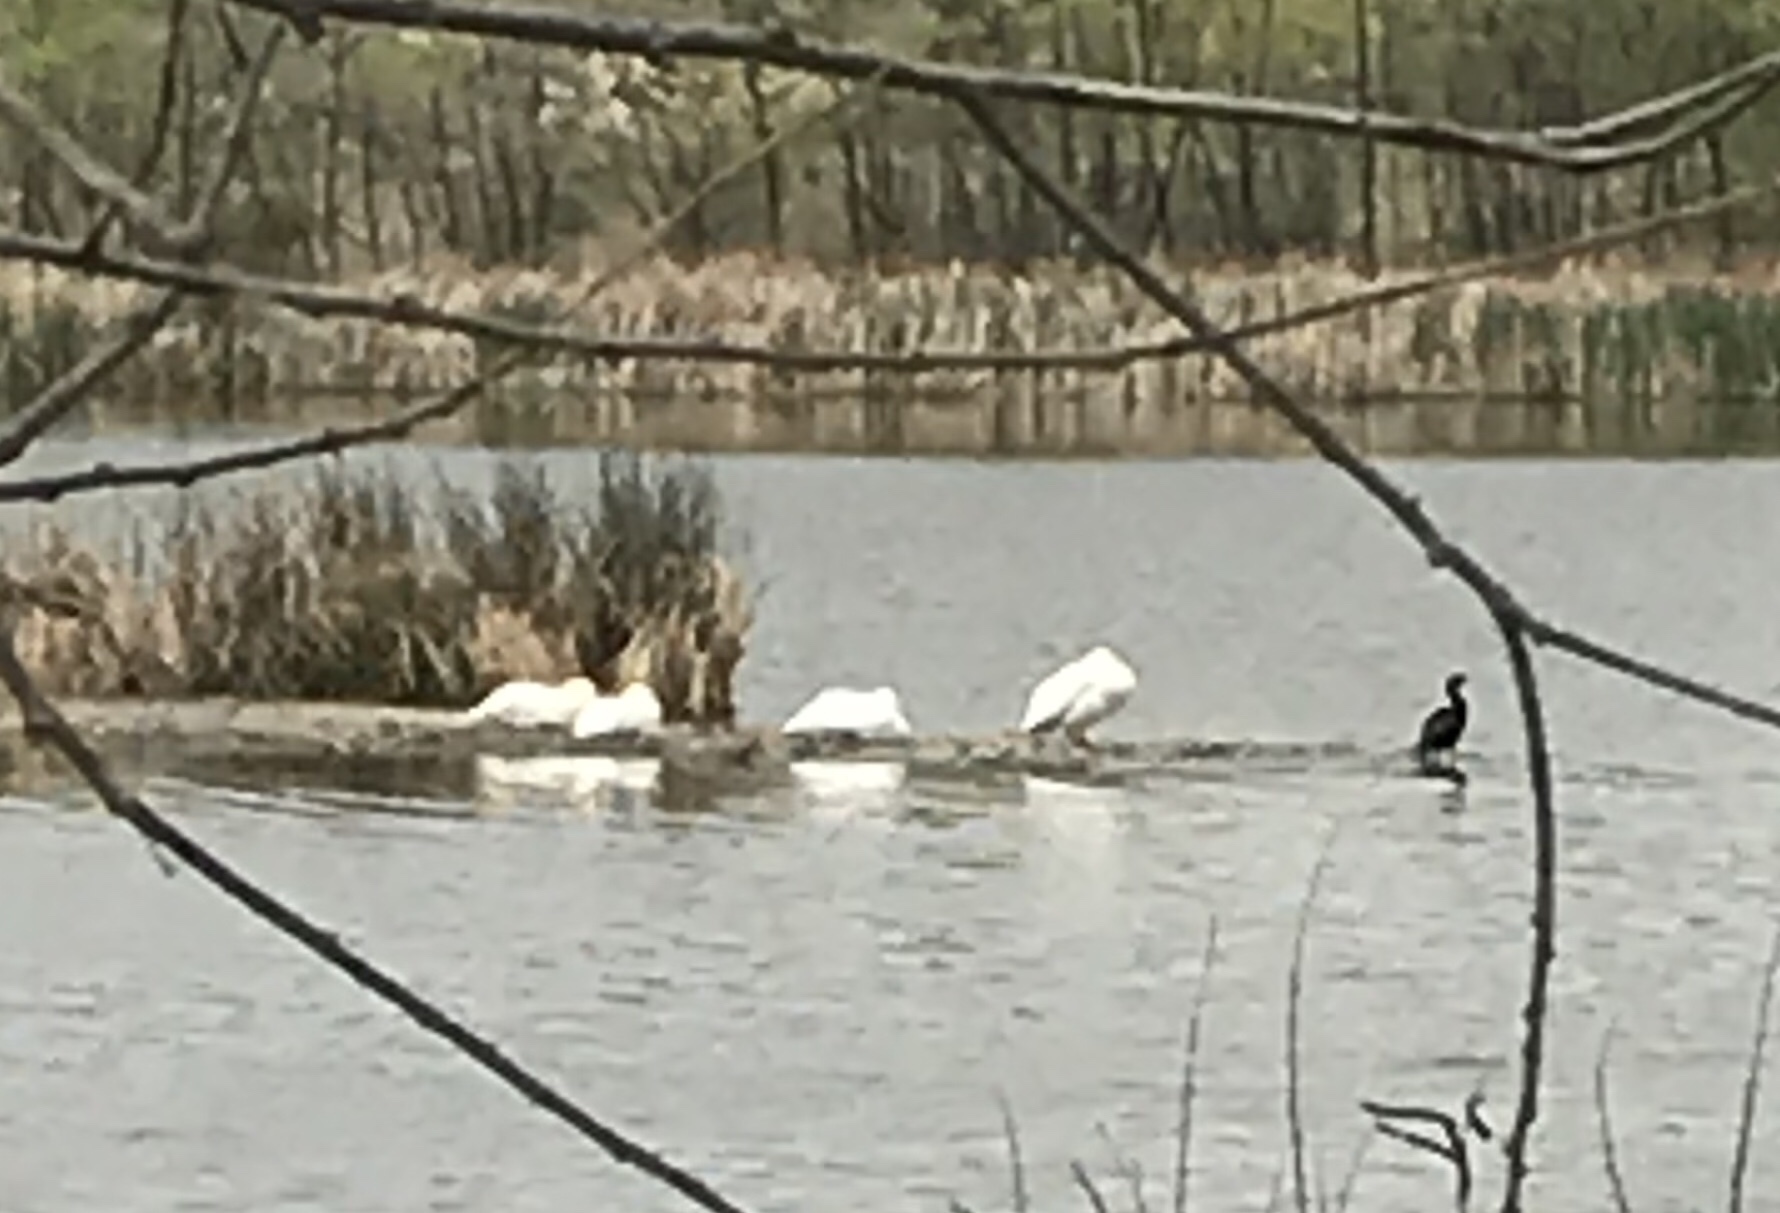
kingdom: Animalia
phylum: Chordata
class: Aves
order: Pelecaniformes
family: Pelecanidae
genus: Pelecanus
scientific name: Pelecanus erythrorhynchos
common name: American white pelican
